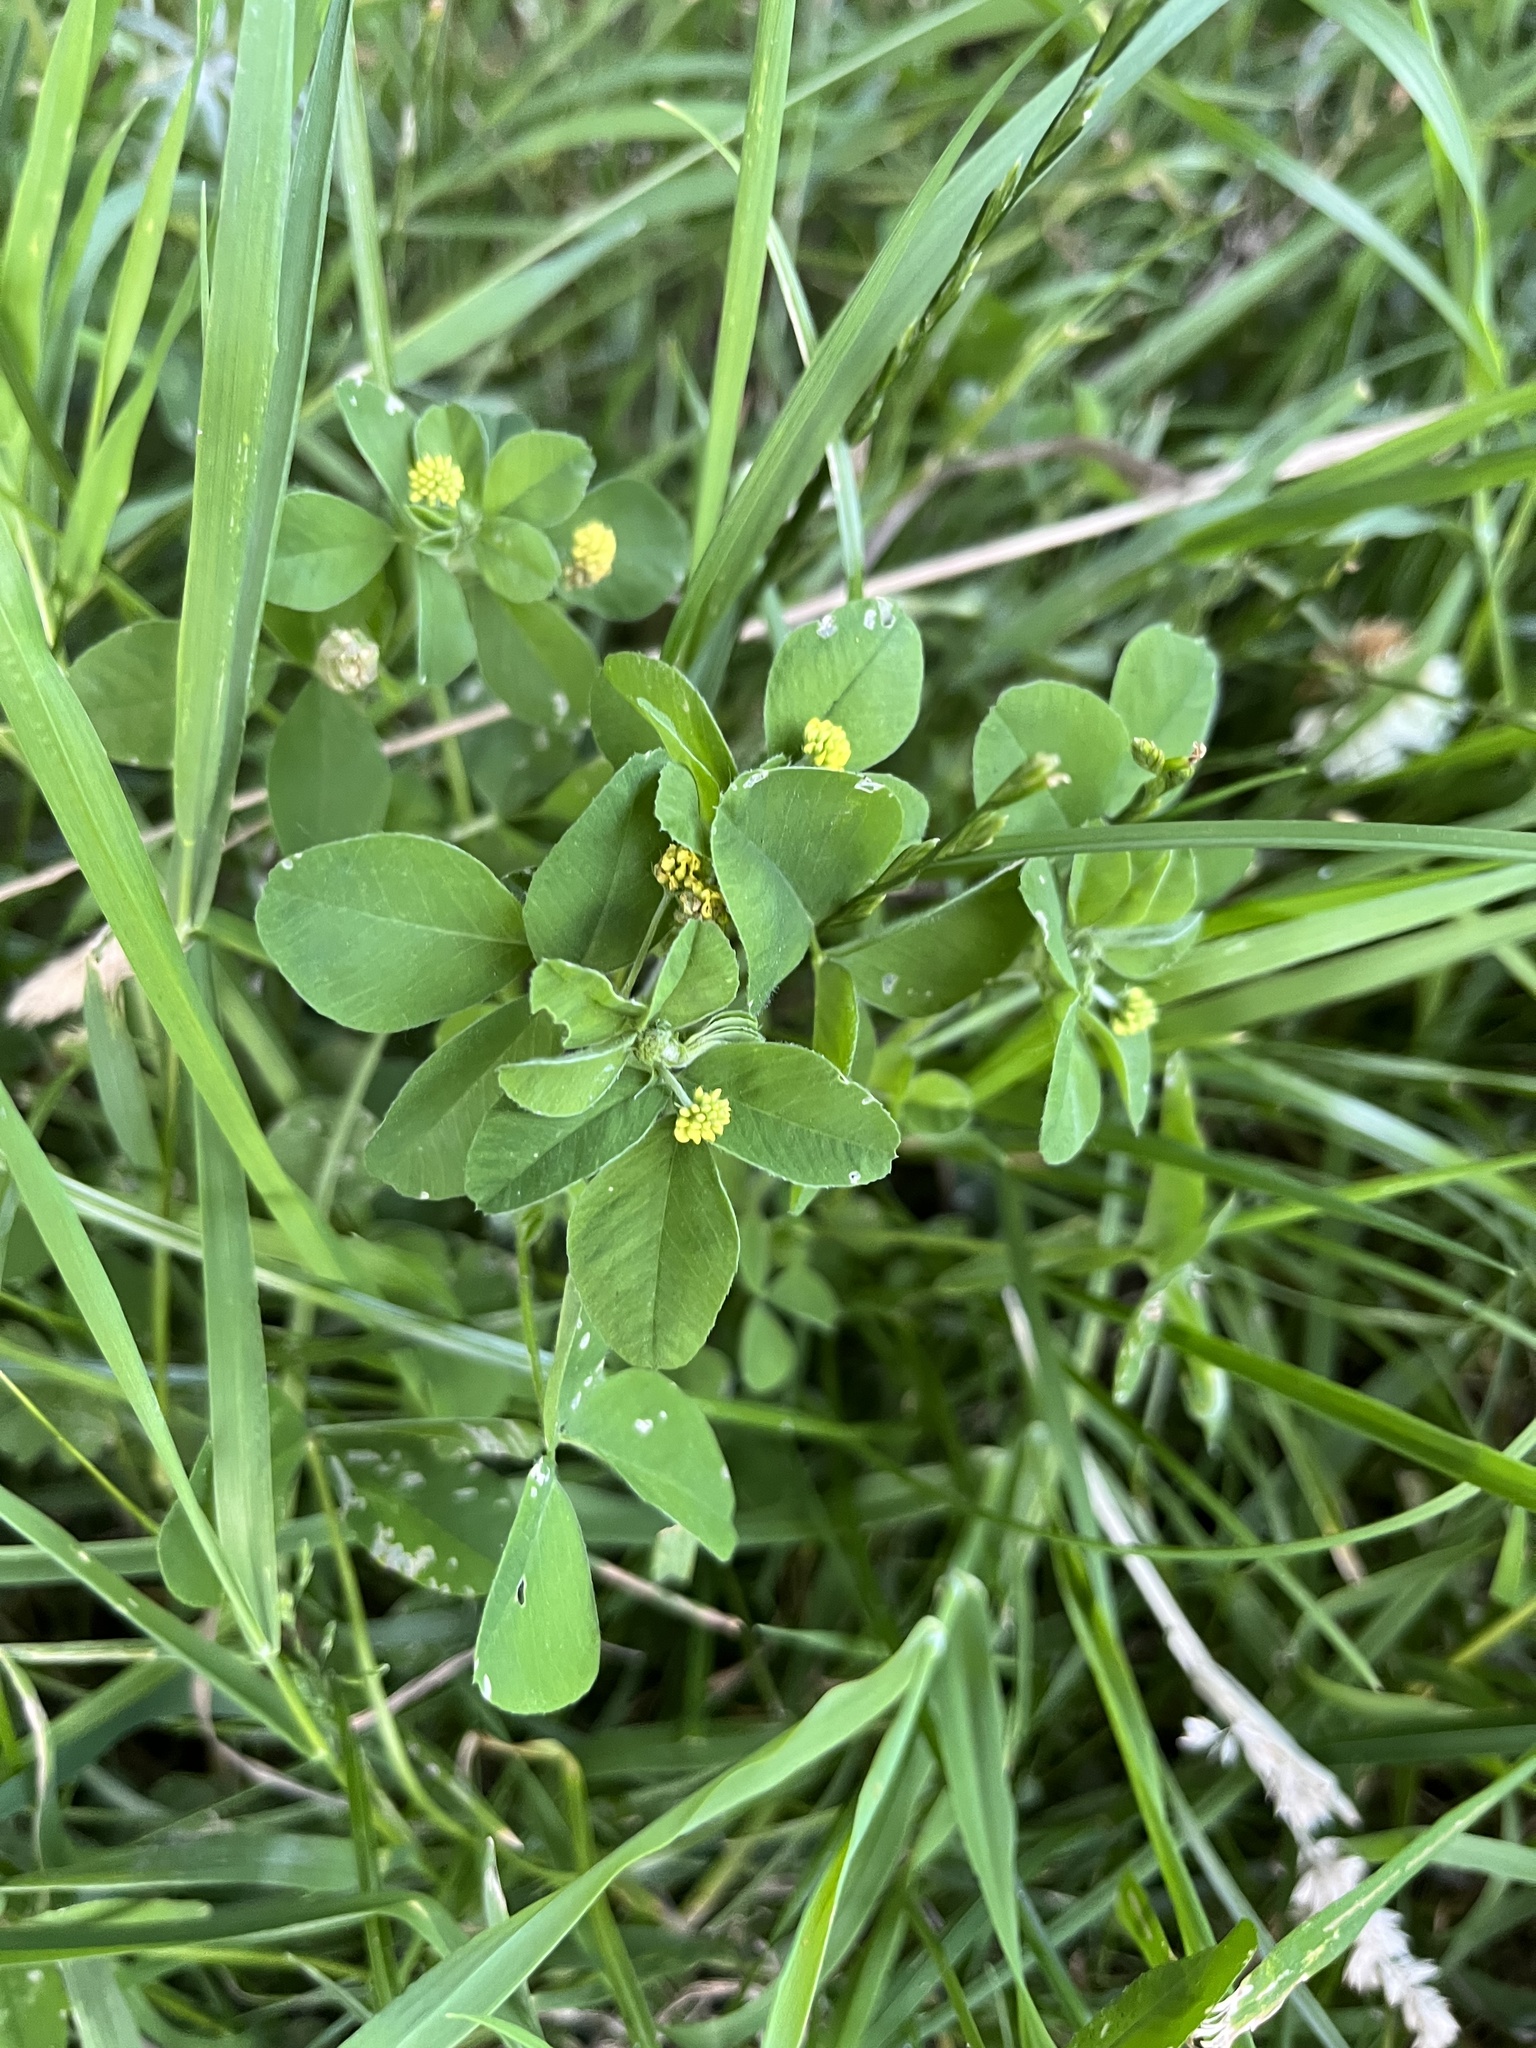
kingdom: Plantae
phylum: Tracheophyta
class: Magnoliopsida
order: Fabales
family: Fabaceae
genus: Medicago
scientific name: Medicago lupulina
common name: Black medick
